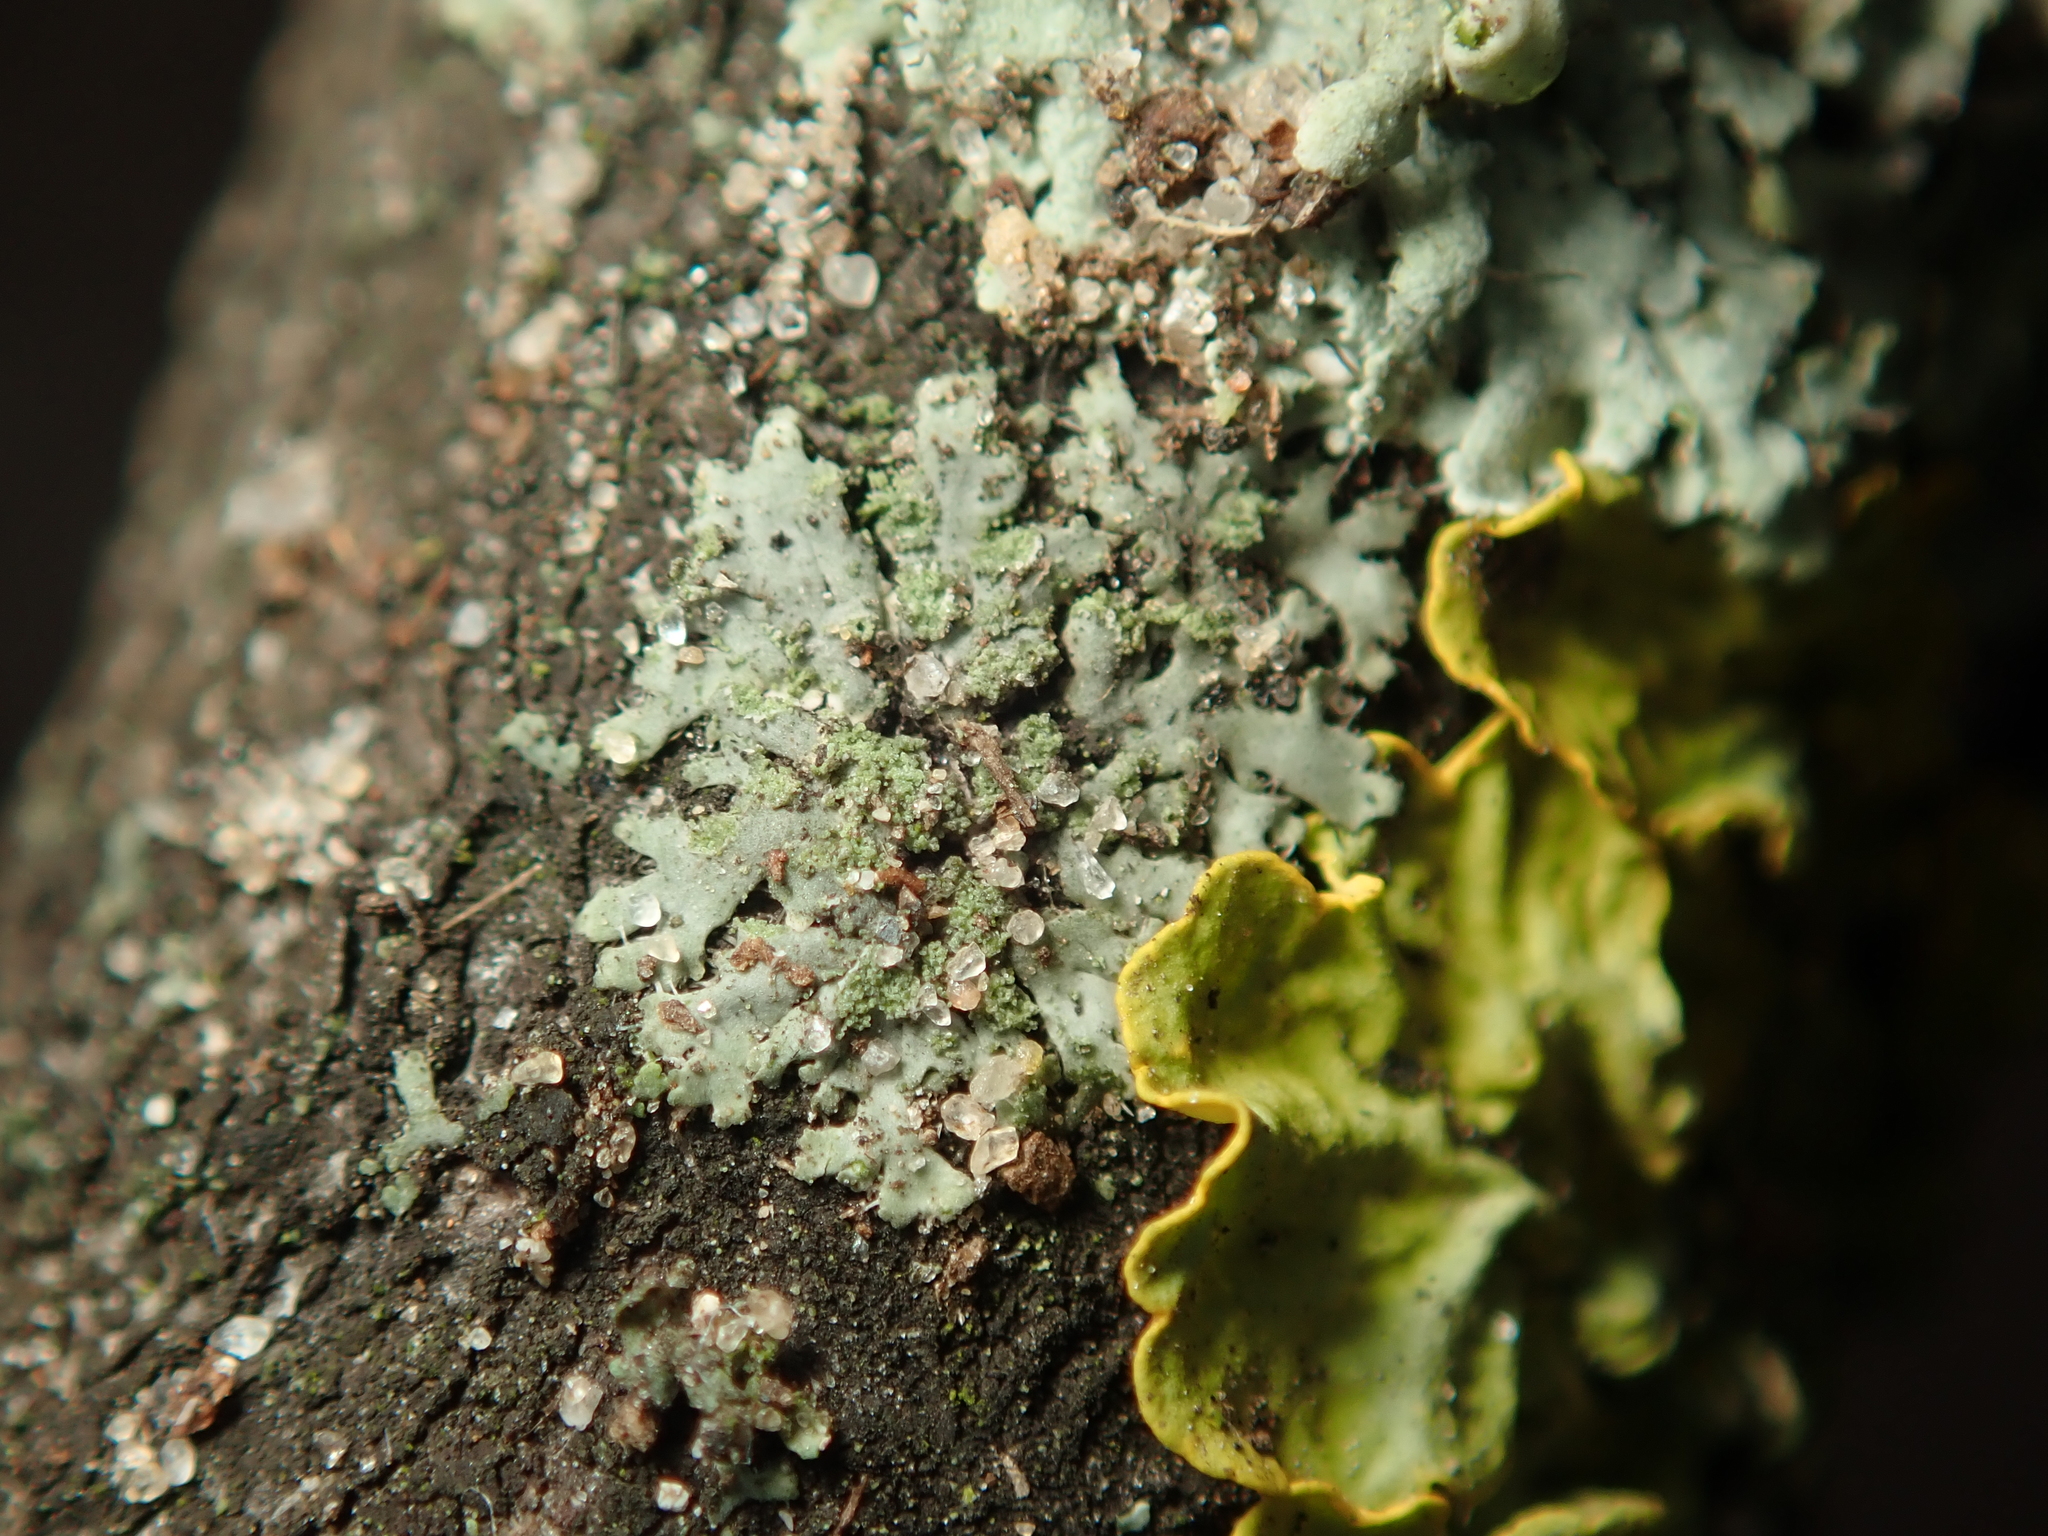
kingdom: Fungi
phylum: Ascomycota
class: Lecanoromycetes
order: Caliciales
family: Physciaceae
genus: Phaeophyscia
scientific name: Phaeophyscia orbicularis
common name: Mealy shadow lichen
